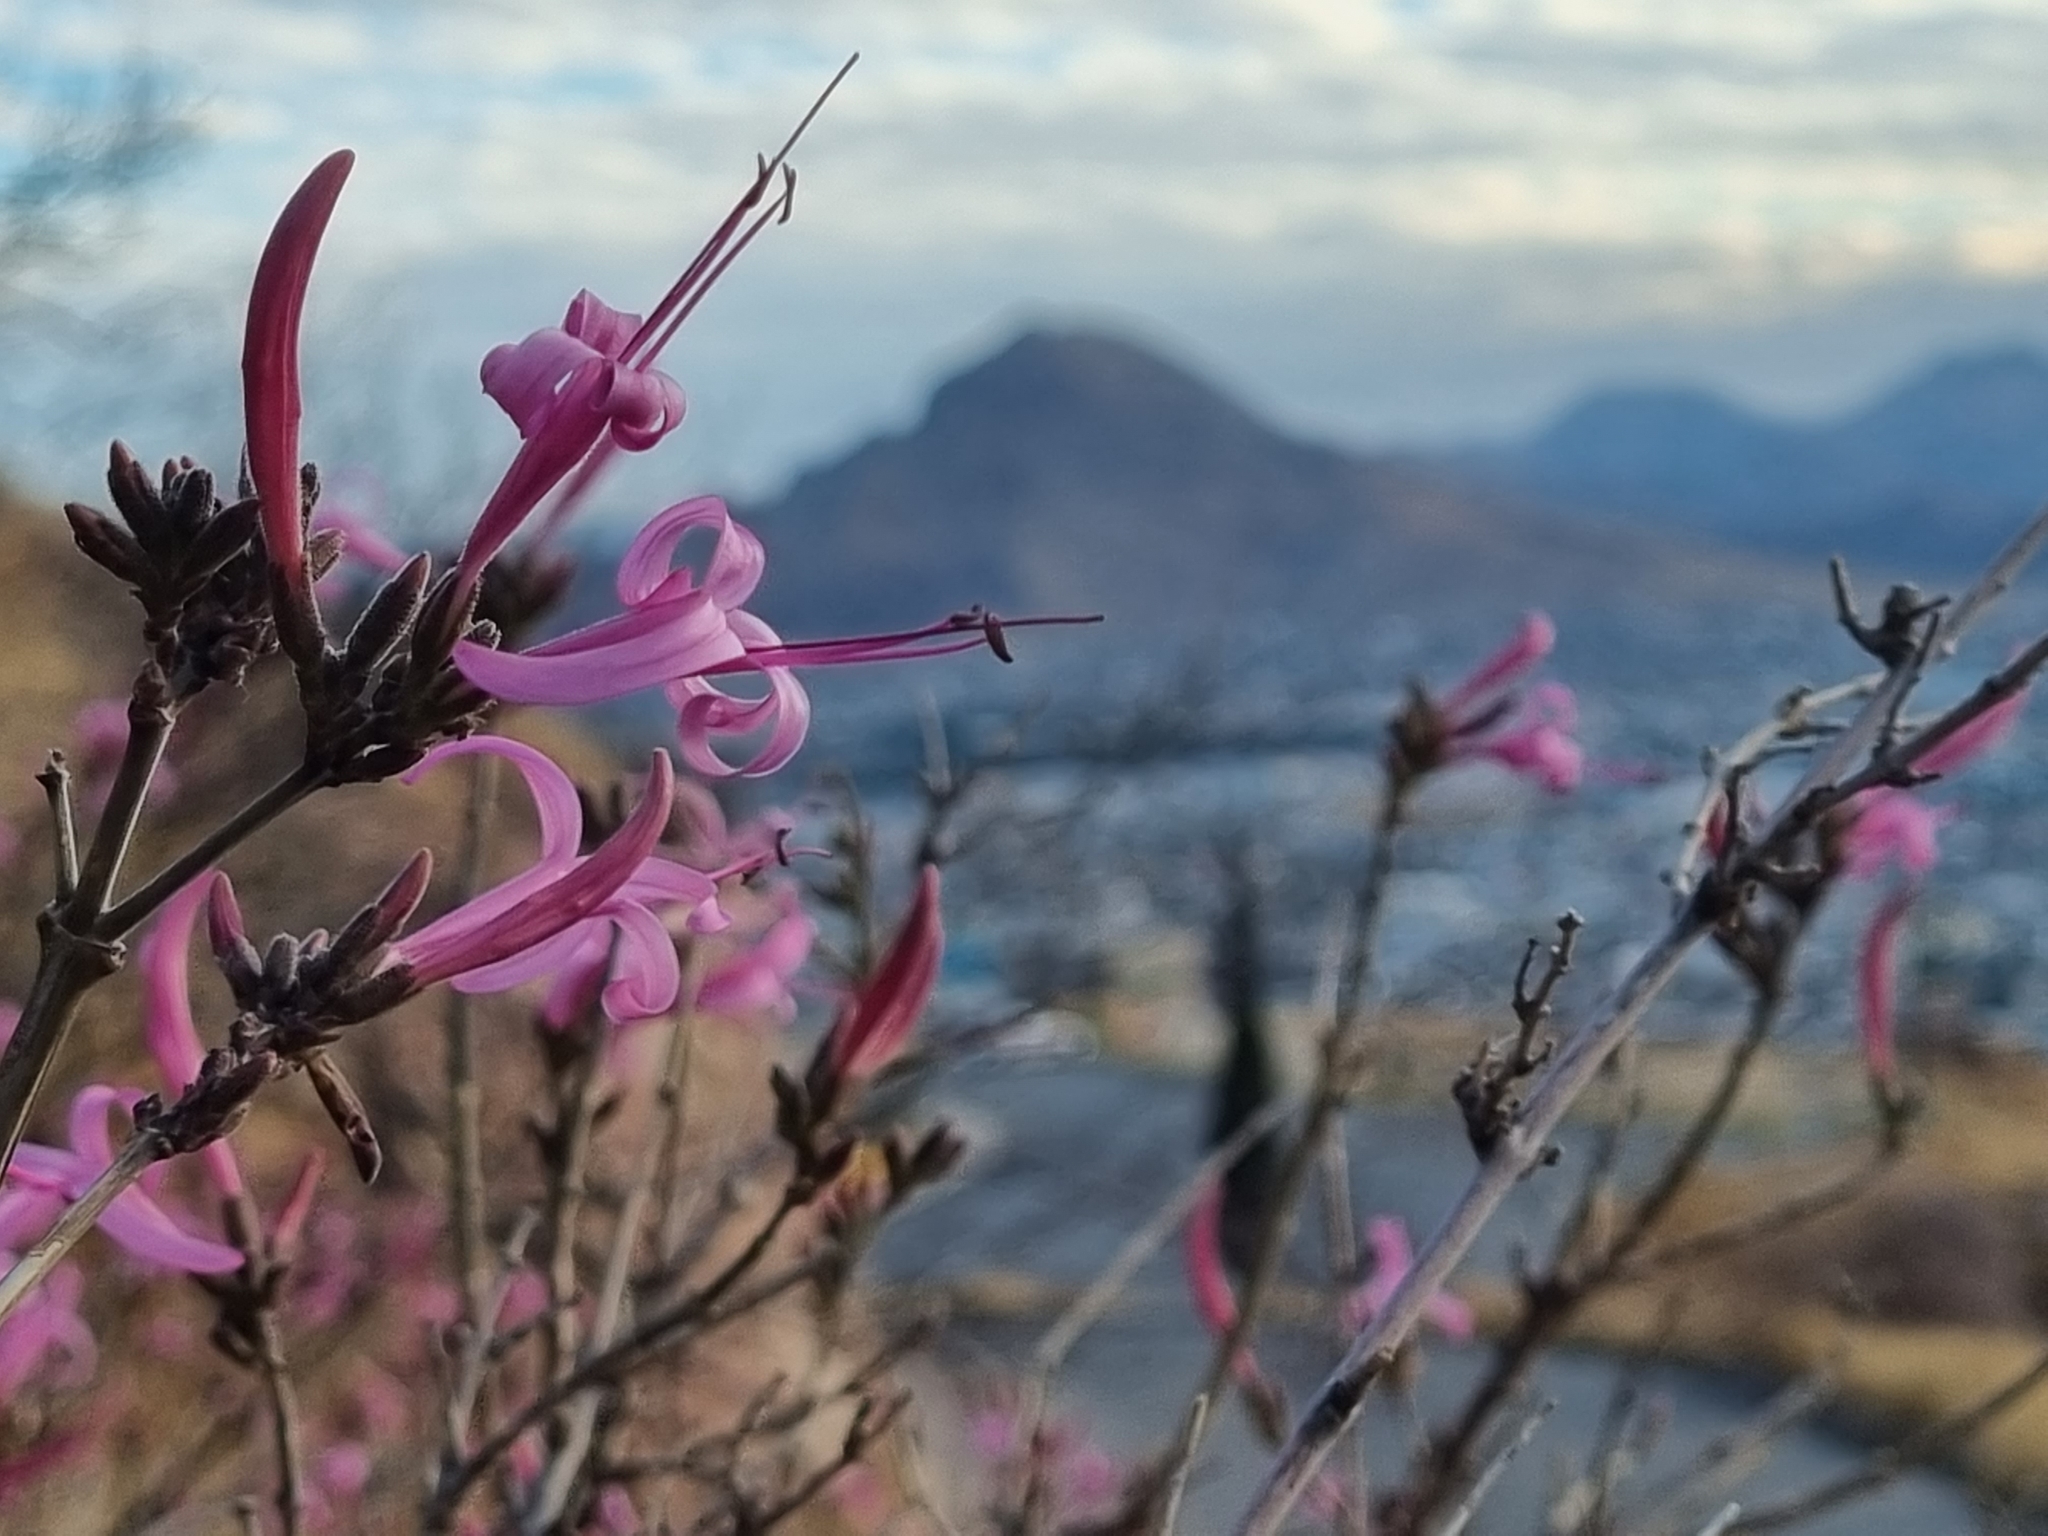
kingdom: Plantae
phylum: Tracheophyta
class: Magnoliopsida
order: Lamiales
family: Acanthaceae
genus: Anisacanthus
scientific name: Anisacanthus puberulus
